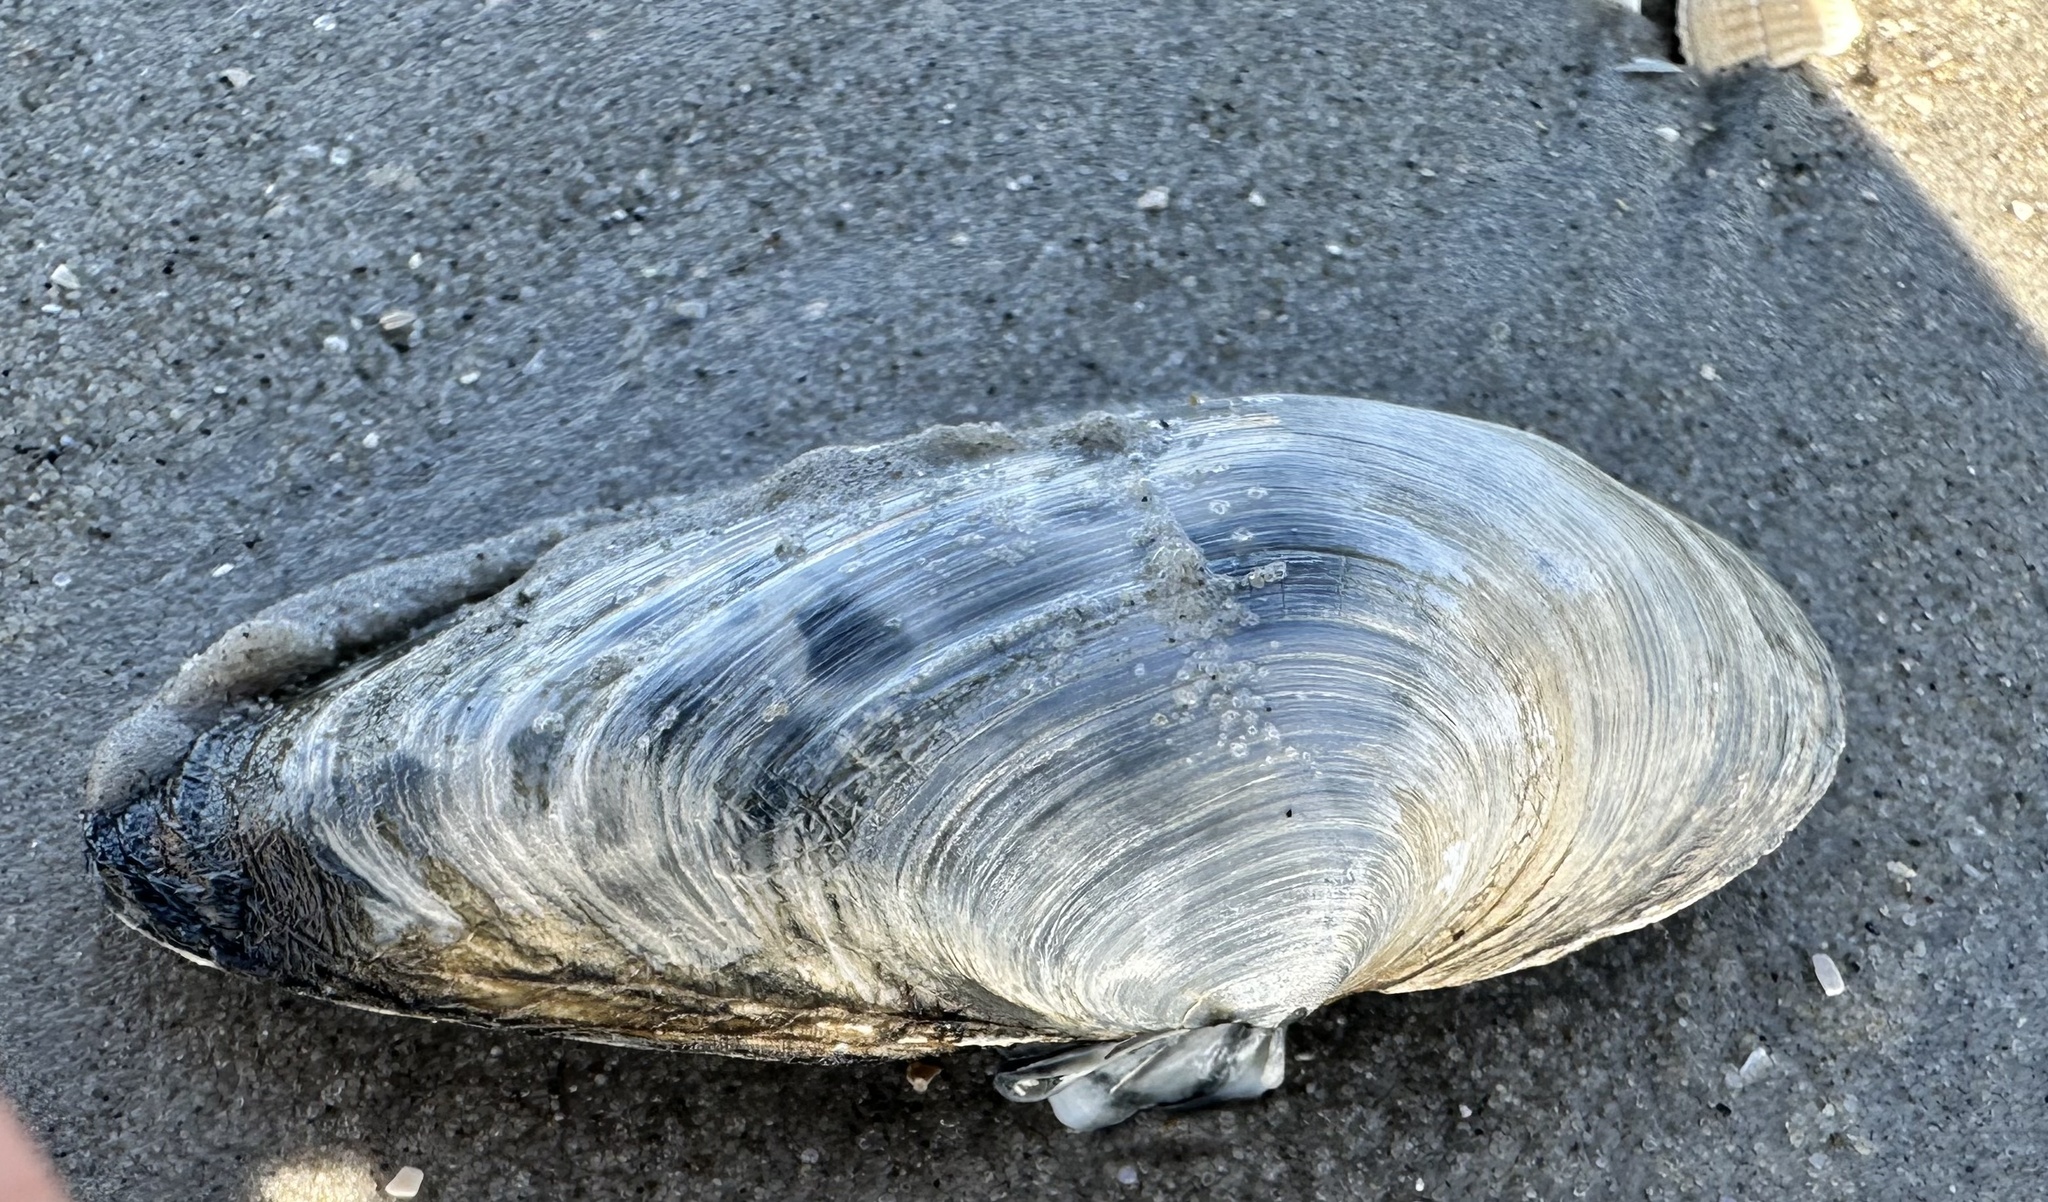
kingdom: Animalia
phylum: Mollusca
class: Bivalvia
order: Myida
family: Myidae
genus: Mya
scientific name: Mya arenaria
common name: Soft-shelled clam
